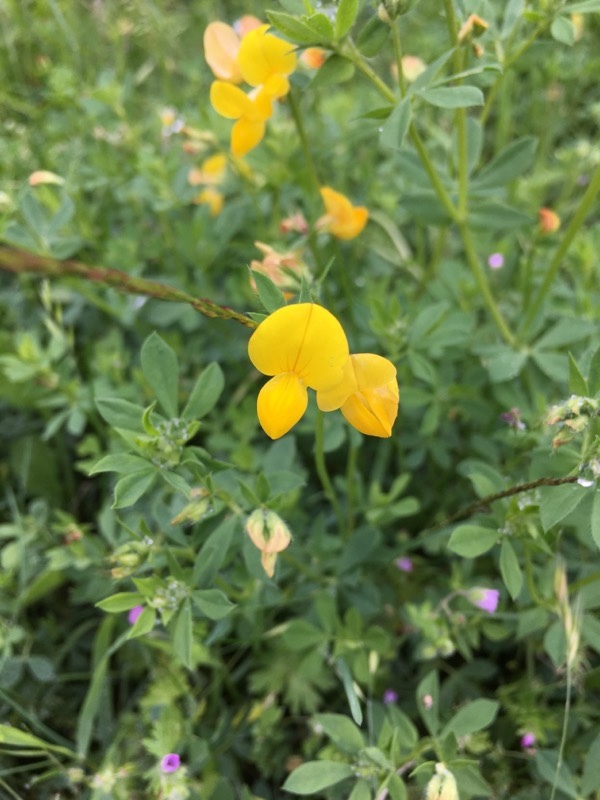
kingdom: Plantae
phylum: Tracheophyta
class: Magnoliopsida
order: Fabales
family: Fabaceae
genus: Lotus
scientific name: Lotus corniculatus
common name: Common bird's-foot-trefoil
